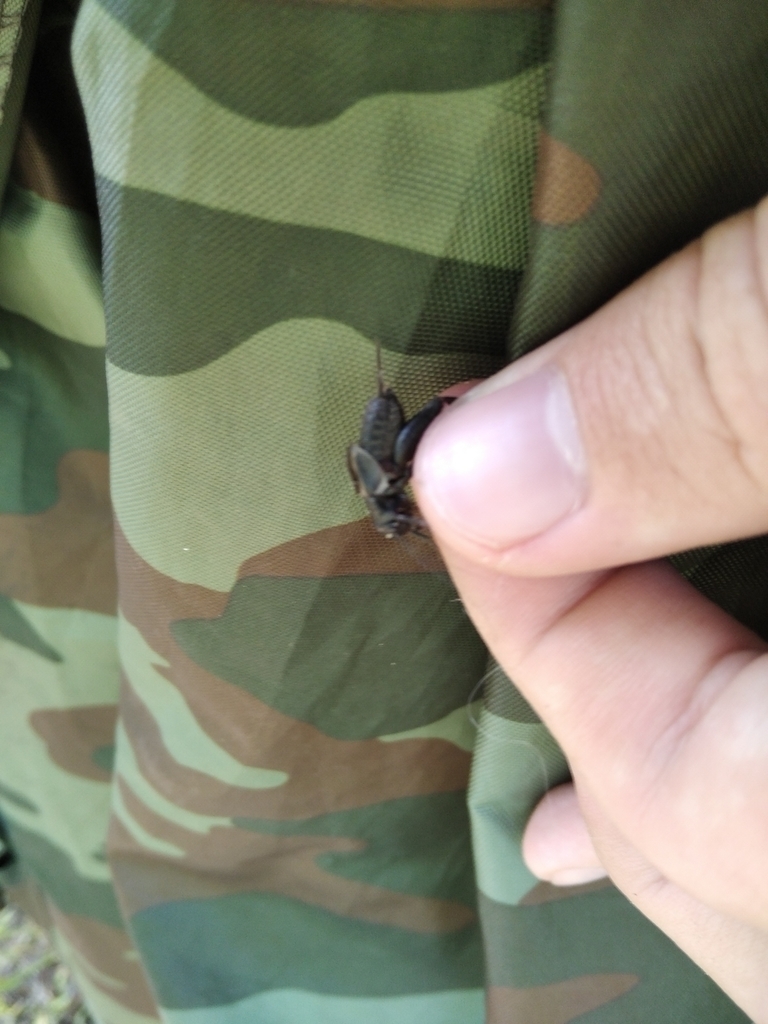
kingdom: Animalia
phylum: Arthropoda
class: Insecta
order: Orthoptera
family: Gryllidae
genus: Modicogryllus
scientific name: Modicogryllus frontalis
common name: Eastern cricket
